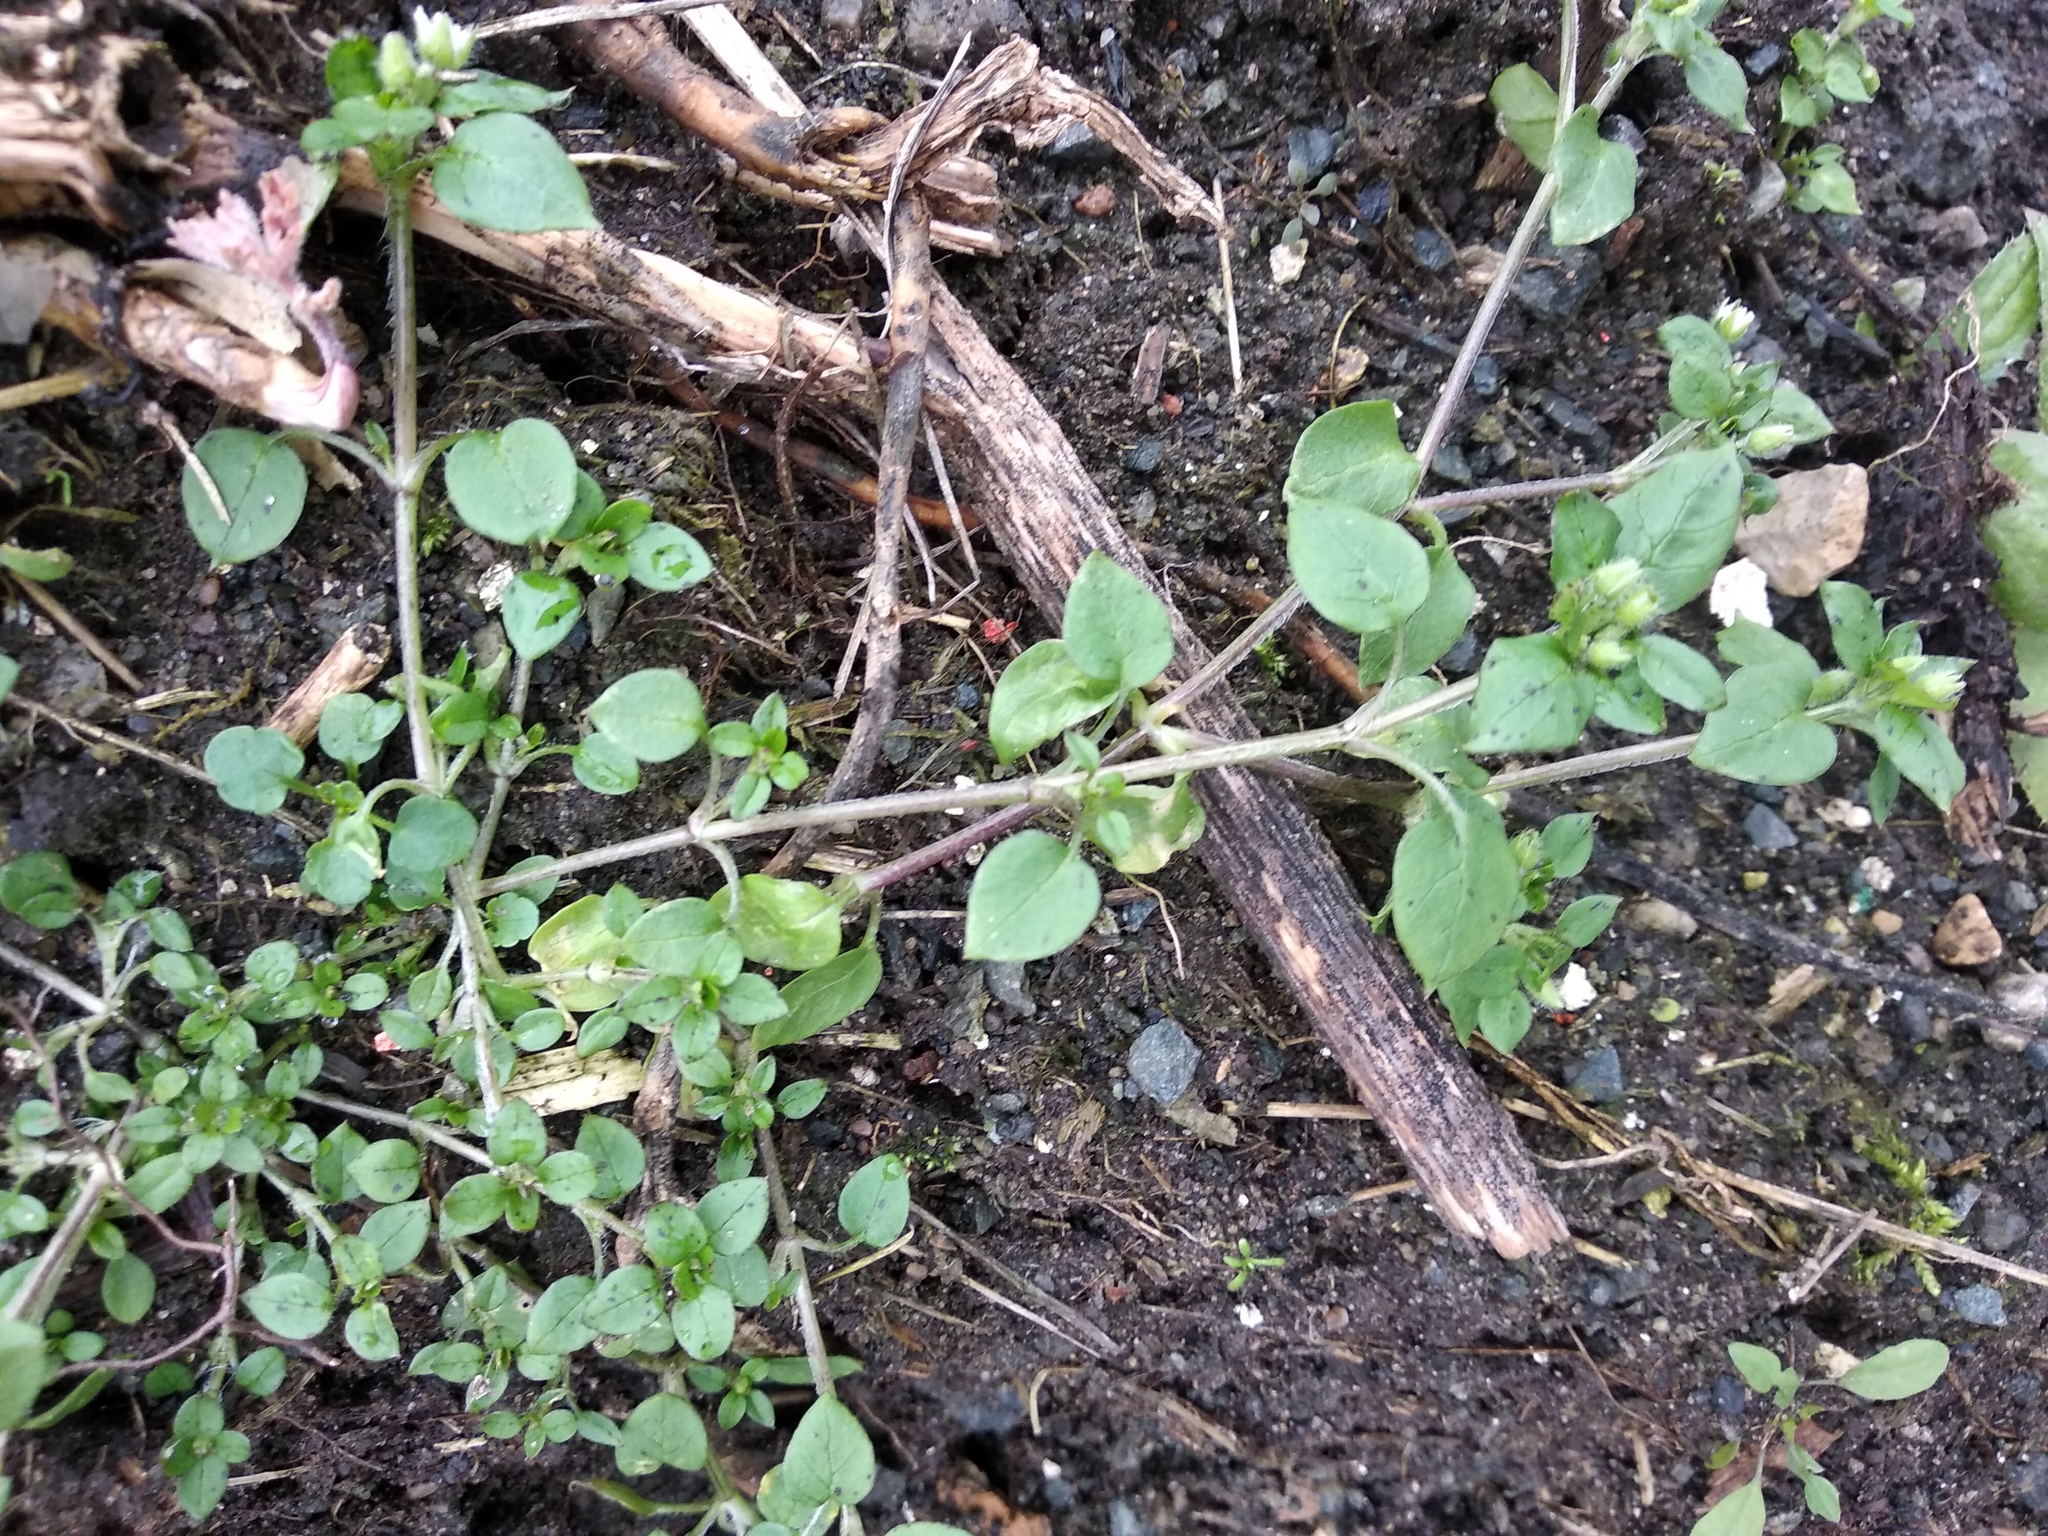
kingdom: Plantae
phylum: Tracheophyta
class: Magnoliopsida
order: Caryophyllales
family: Caryophyllaceae
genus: Stellaria
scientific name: Stellaria media
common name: Common chickweed
